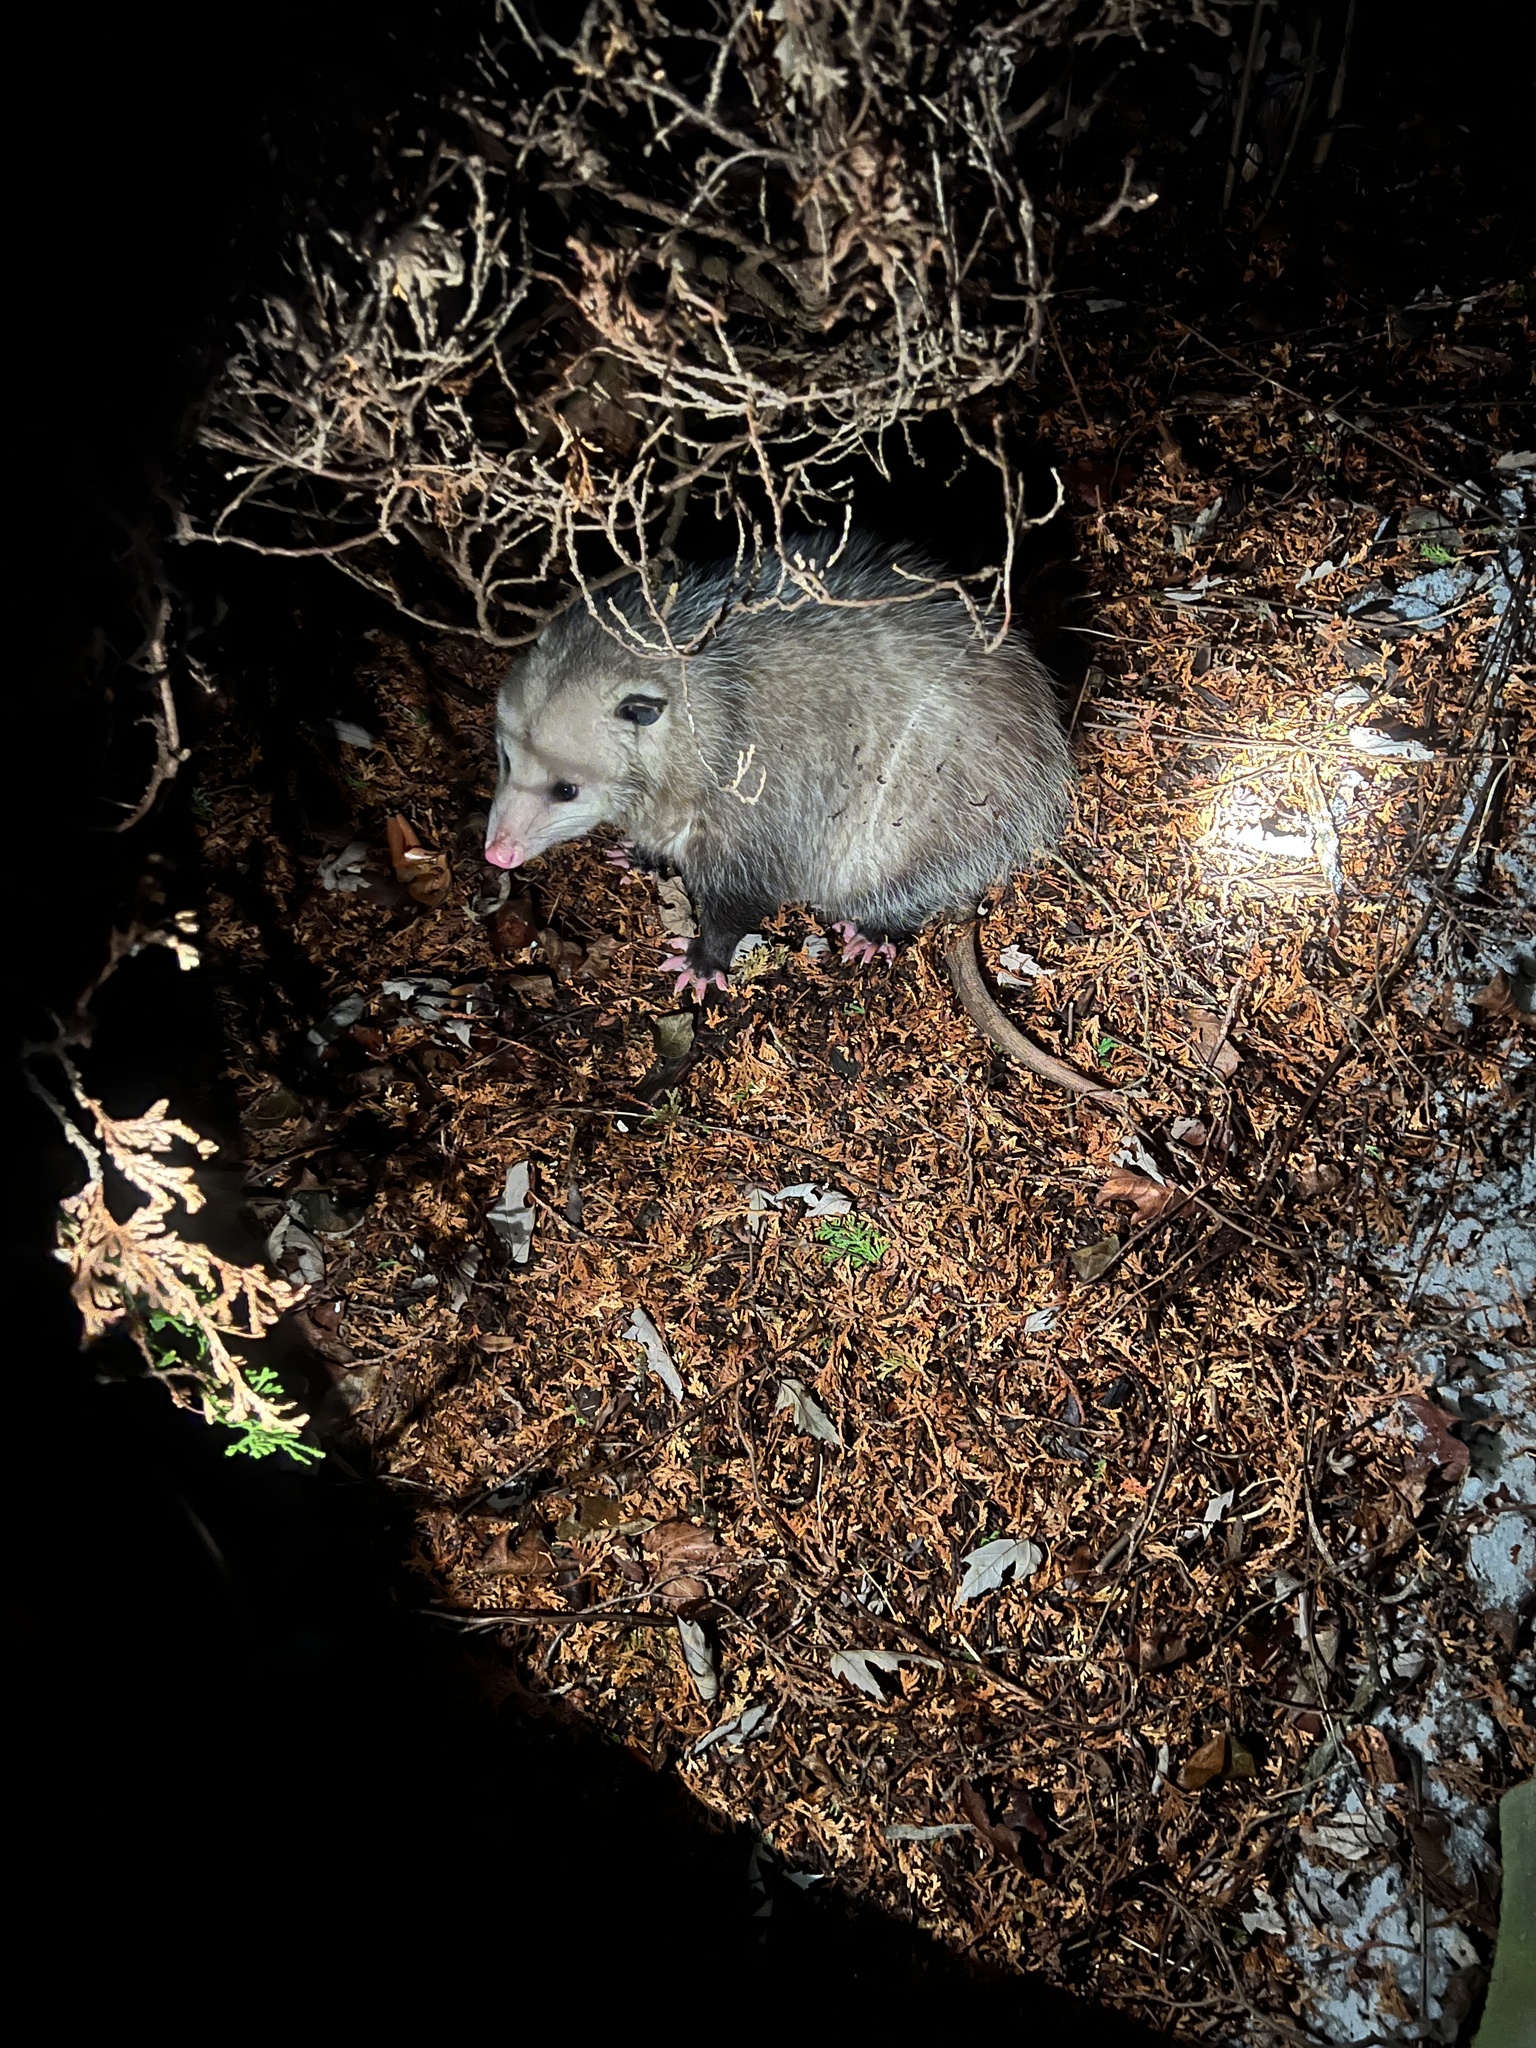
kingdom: Animalia
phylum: Chordata
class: Mammalia
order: Didelphimorphia
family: Didelphidae
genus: Didelphis
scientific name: Didelphis virginiana
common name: Virginia opossum
